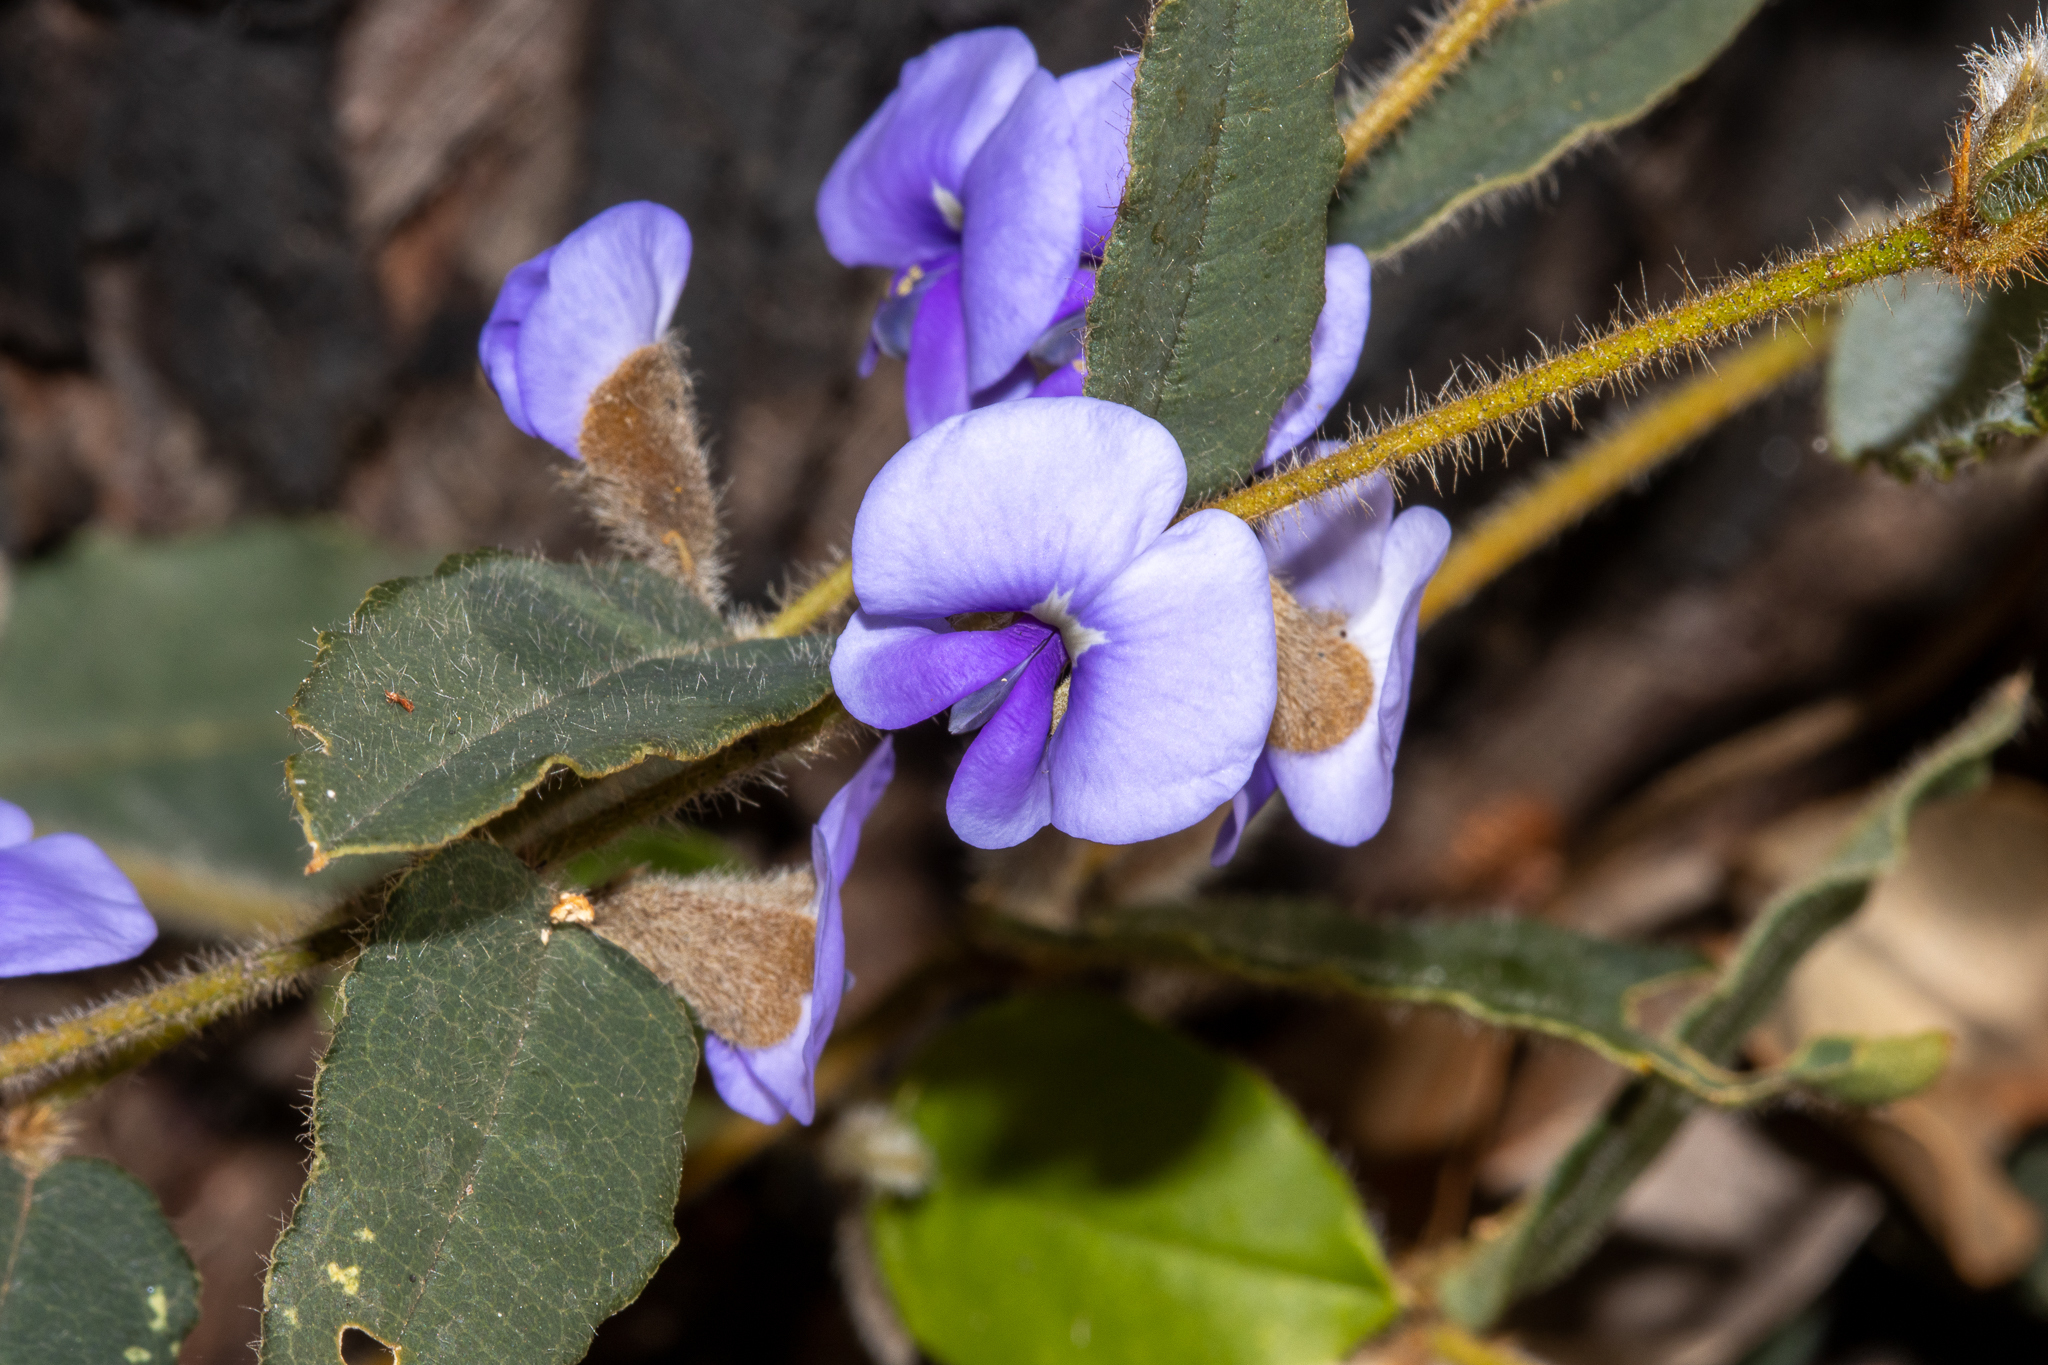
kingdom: Plantae
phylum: Tracheophyta
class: Magnoliopsida
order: Fabales
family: Fabaceae
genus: Hovea
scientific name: Hovea trisperma
